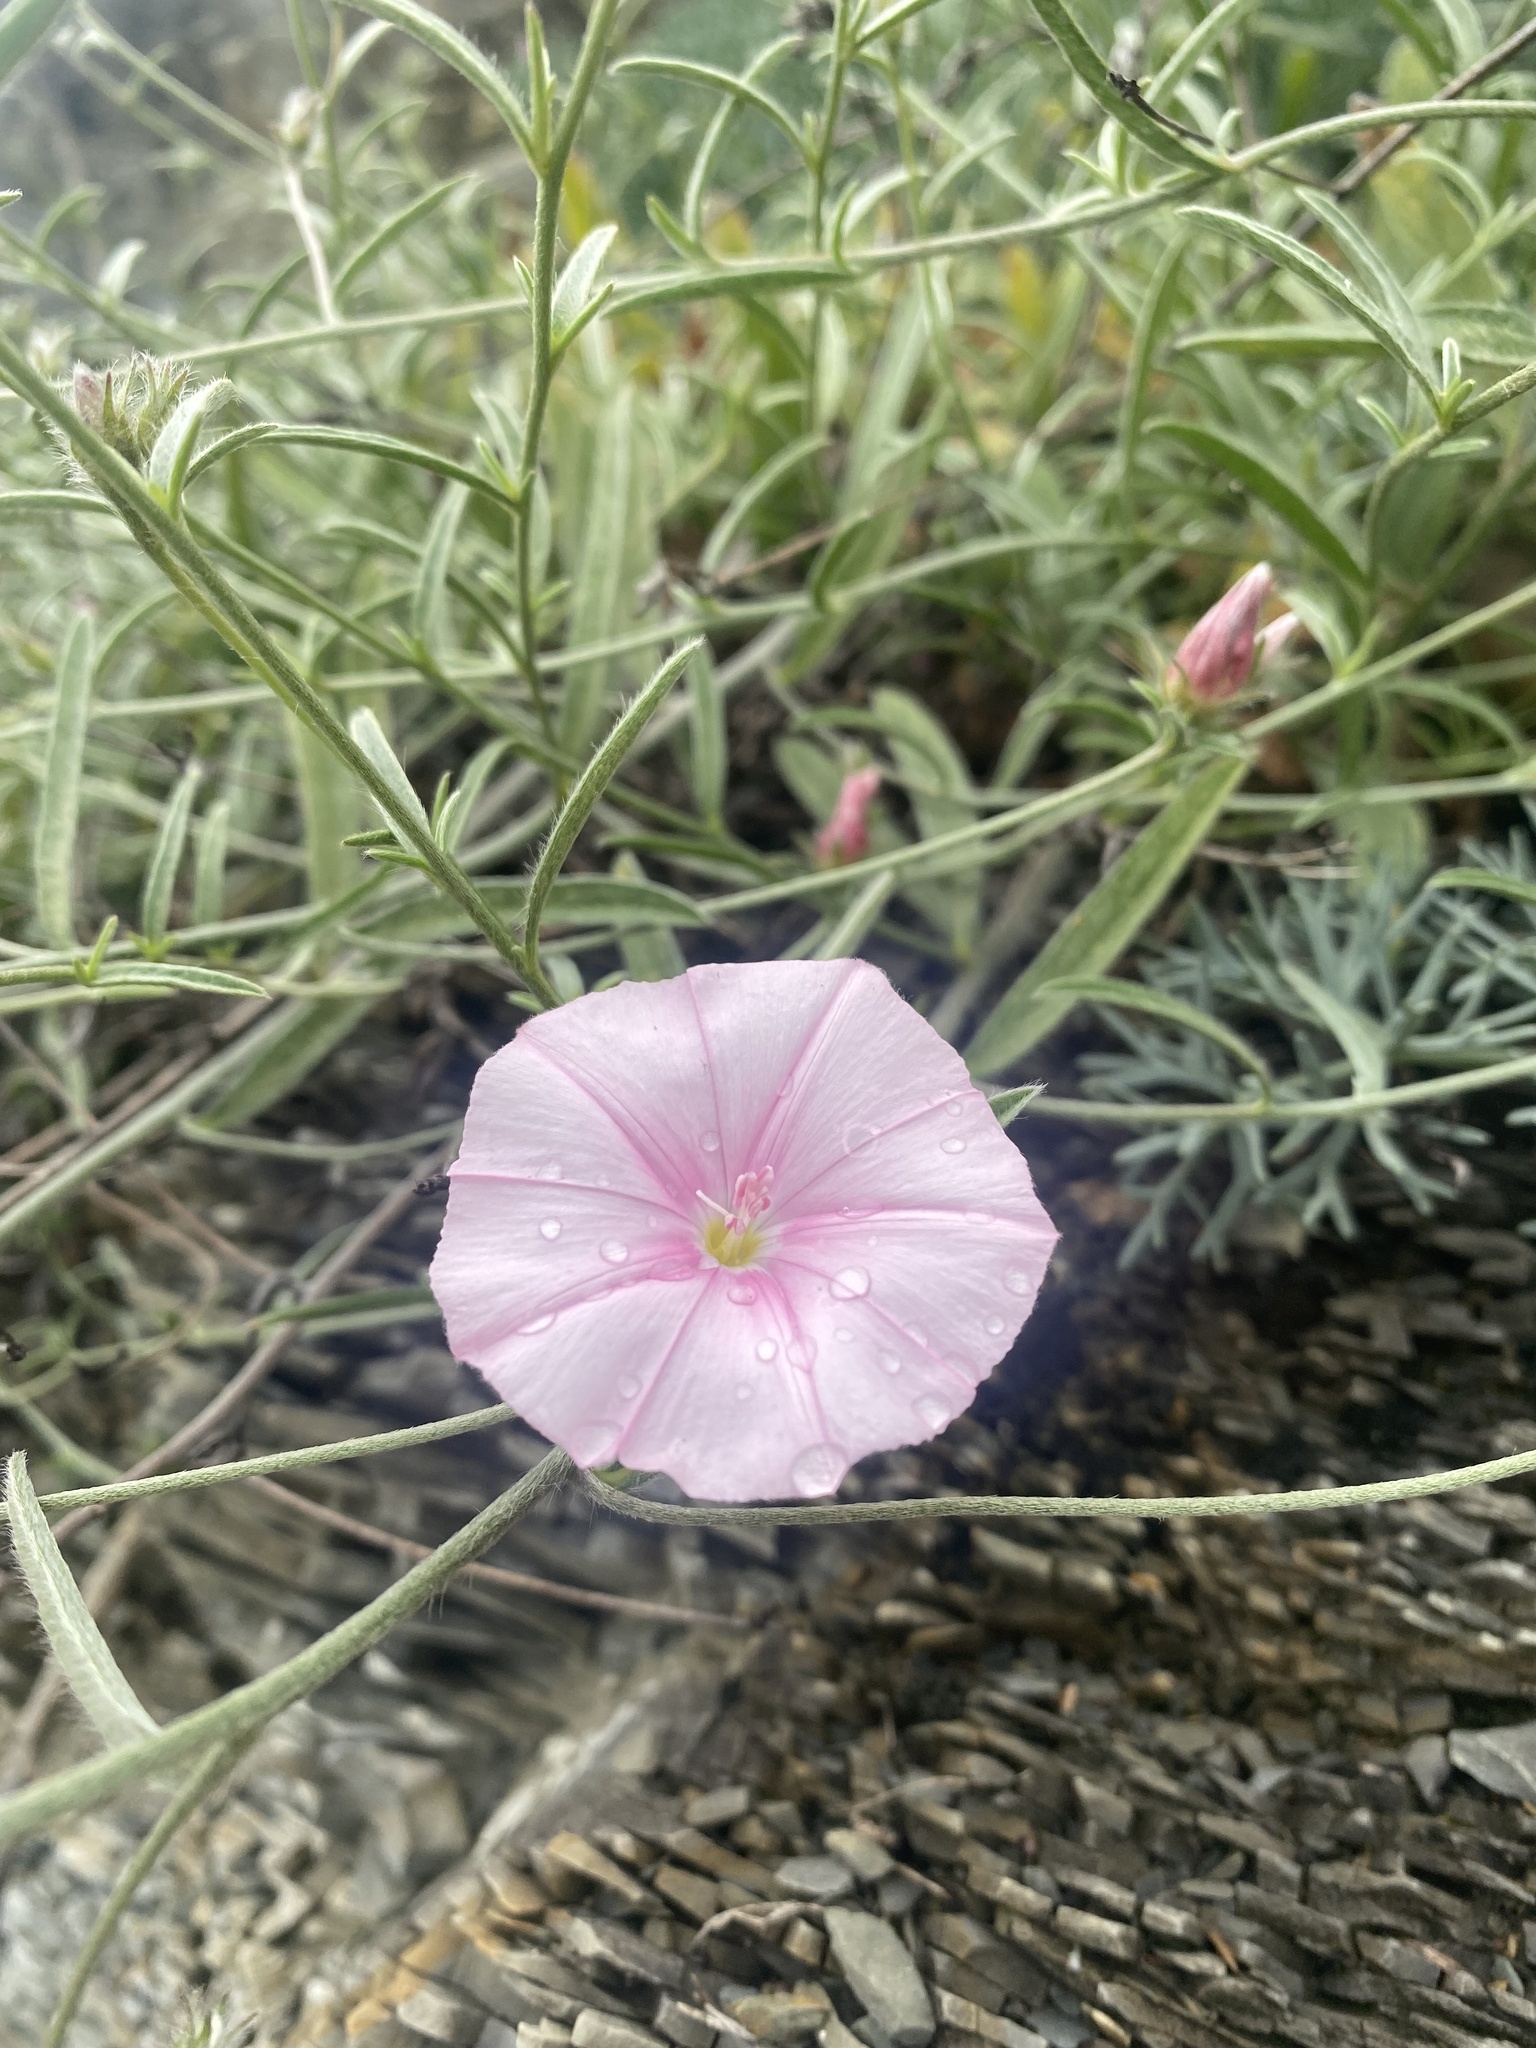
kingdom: Plantae
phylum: Tracheophyta
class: Magnoliopsida
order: Solanales
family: Convolvulaceae
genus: Convolvulus
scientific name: Convolvulus cantabrica
